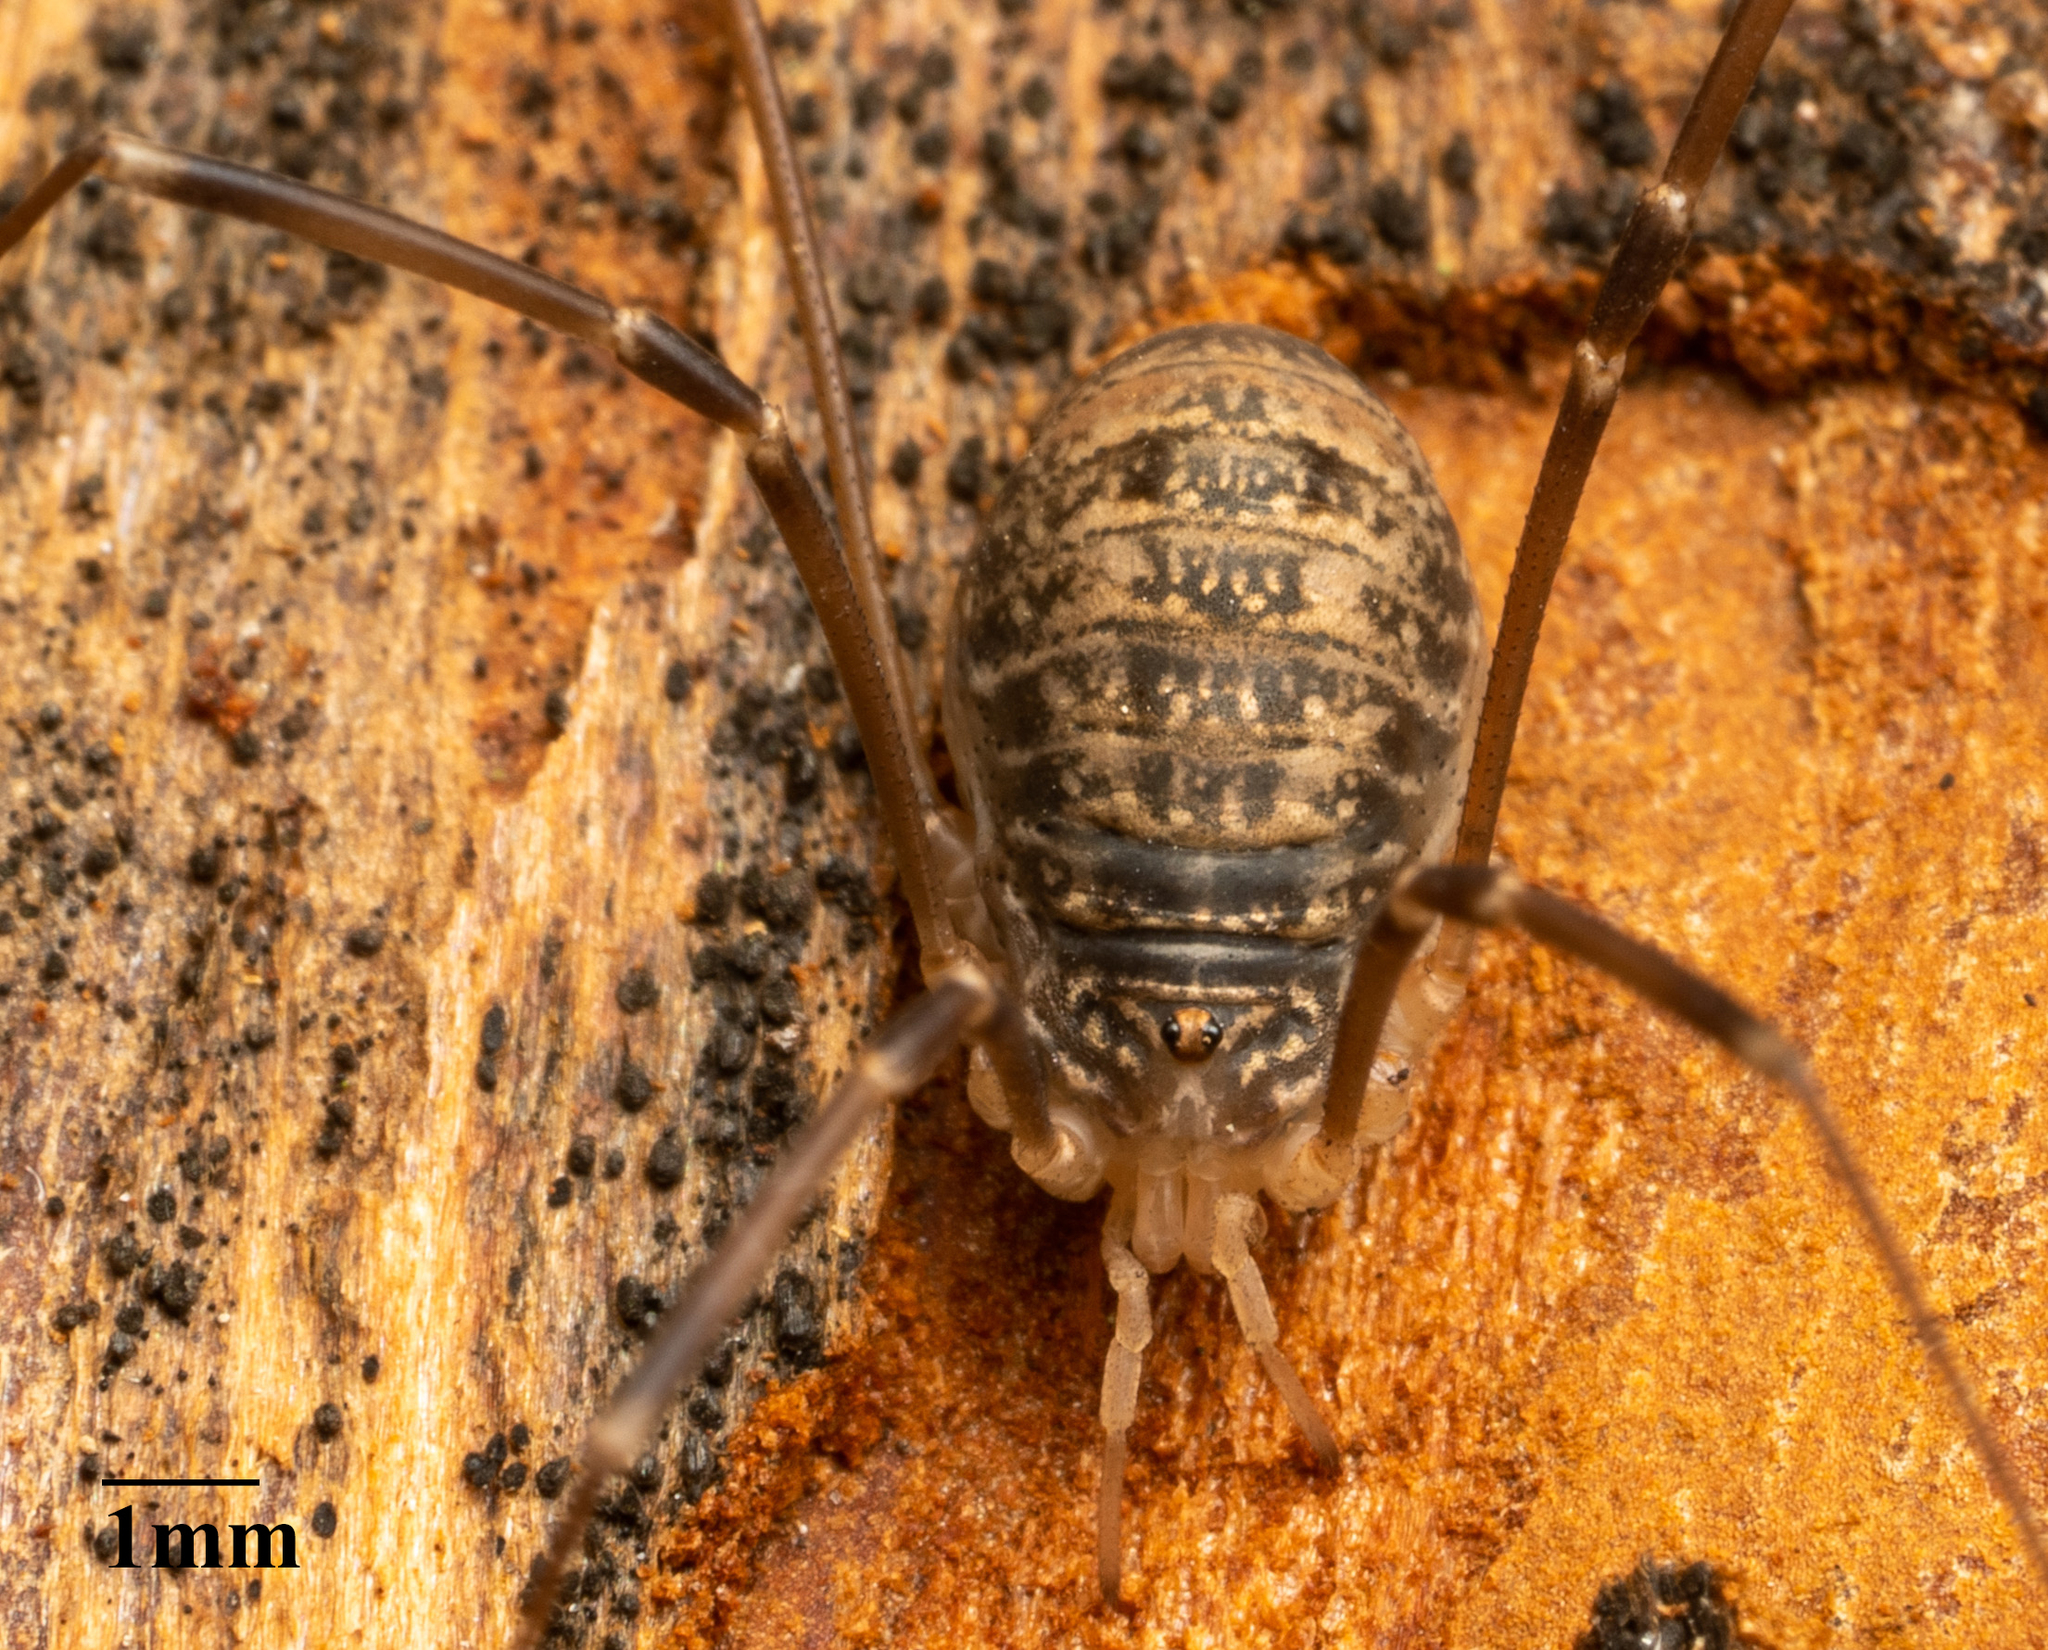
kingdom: Animalia
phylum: Arthropoda
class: Arachnida
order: Opiliones
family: Sclerosomatidae
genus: Nelima
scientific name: Nelima gothica
